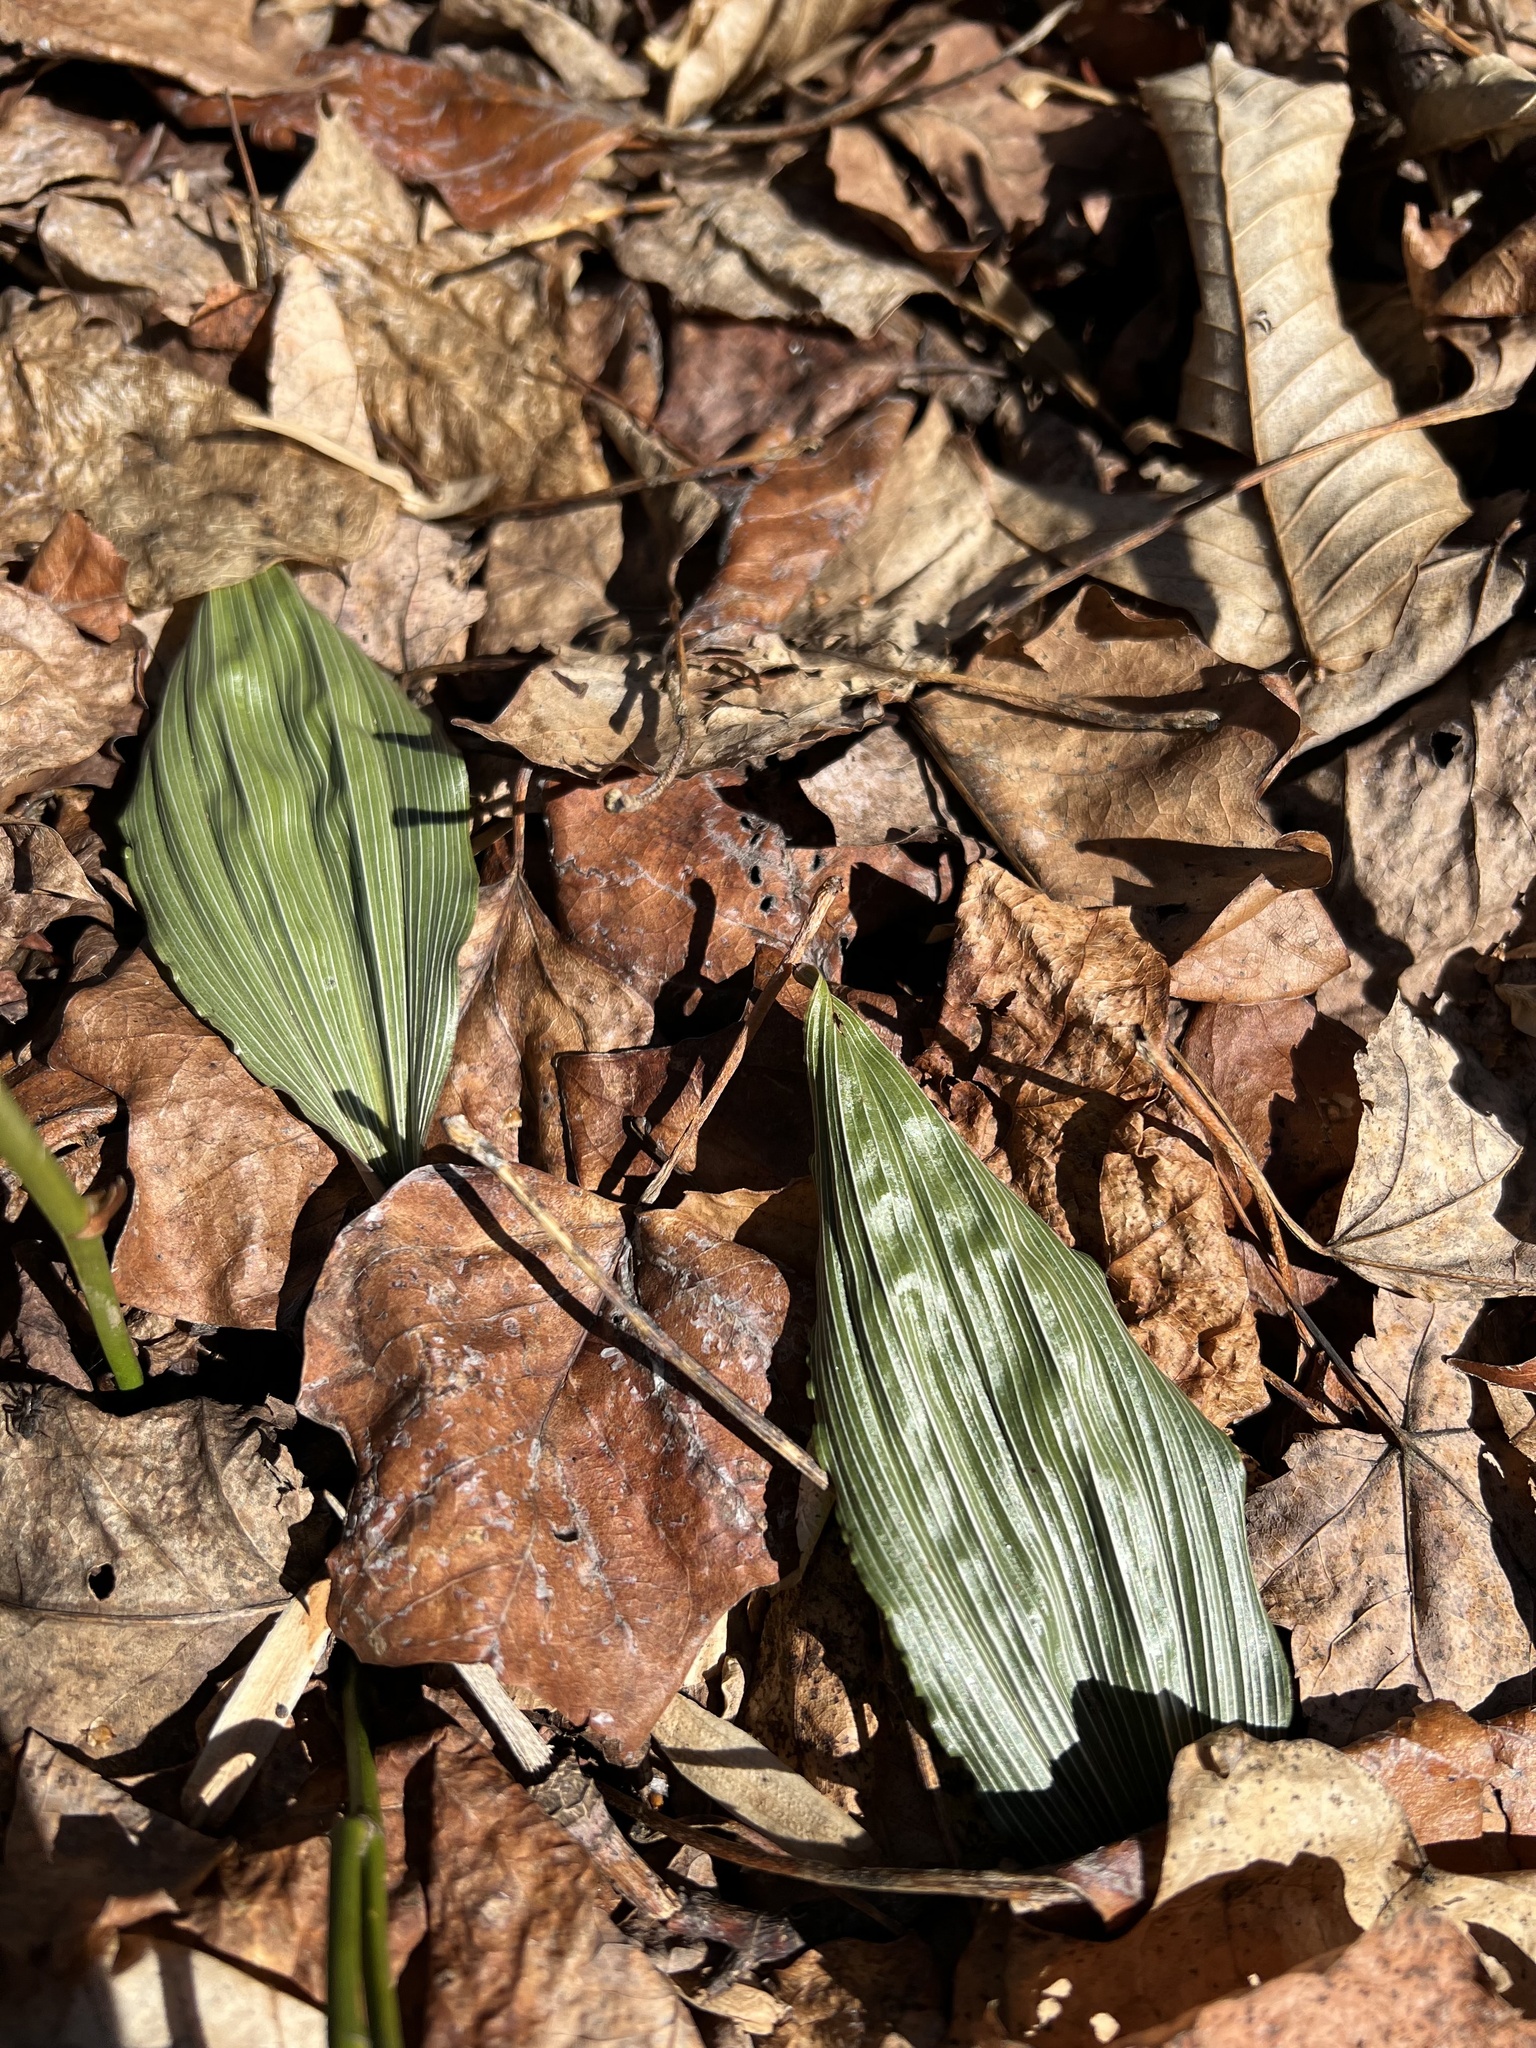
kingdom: Plantae
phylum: Tracheophyta
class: Liliopsida
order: Asparagales
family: Orchidaceae
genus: Aplectrum
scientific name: Aplectrum hyemale
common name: Adam-and-eve
